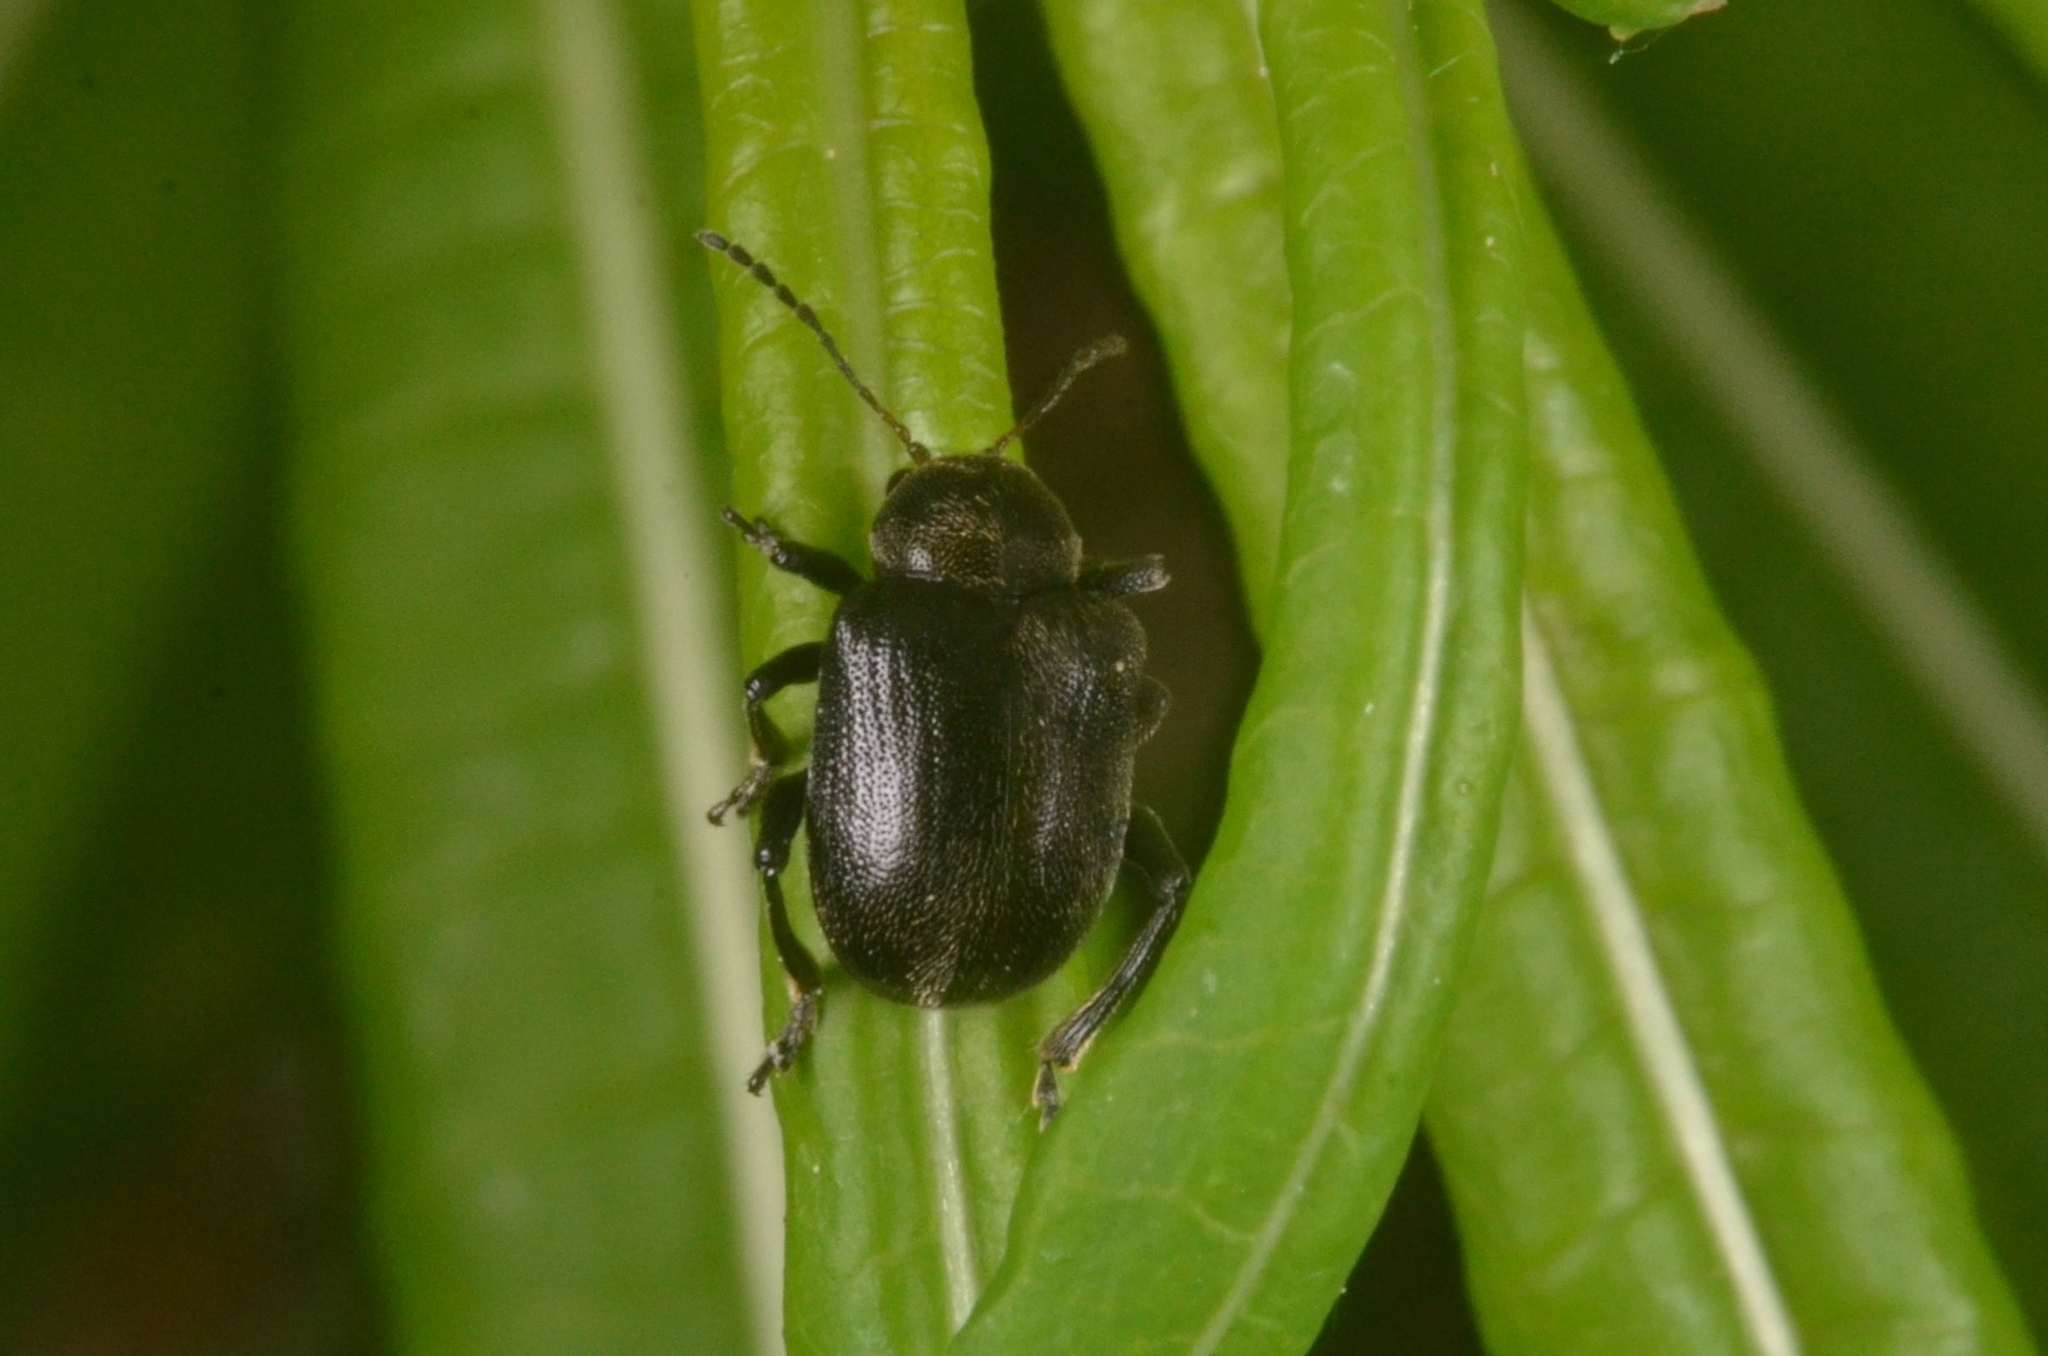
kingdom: Animalia
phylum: Arthropoda
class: Insecta
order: Coleoptera
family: Chrysomelidae
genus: Bromius
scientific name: Bromius obscurus
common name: Western grape rootworm
